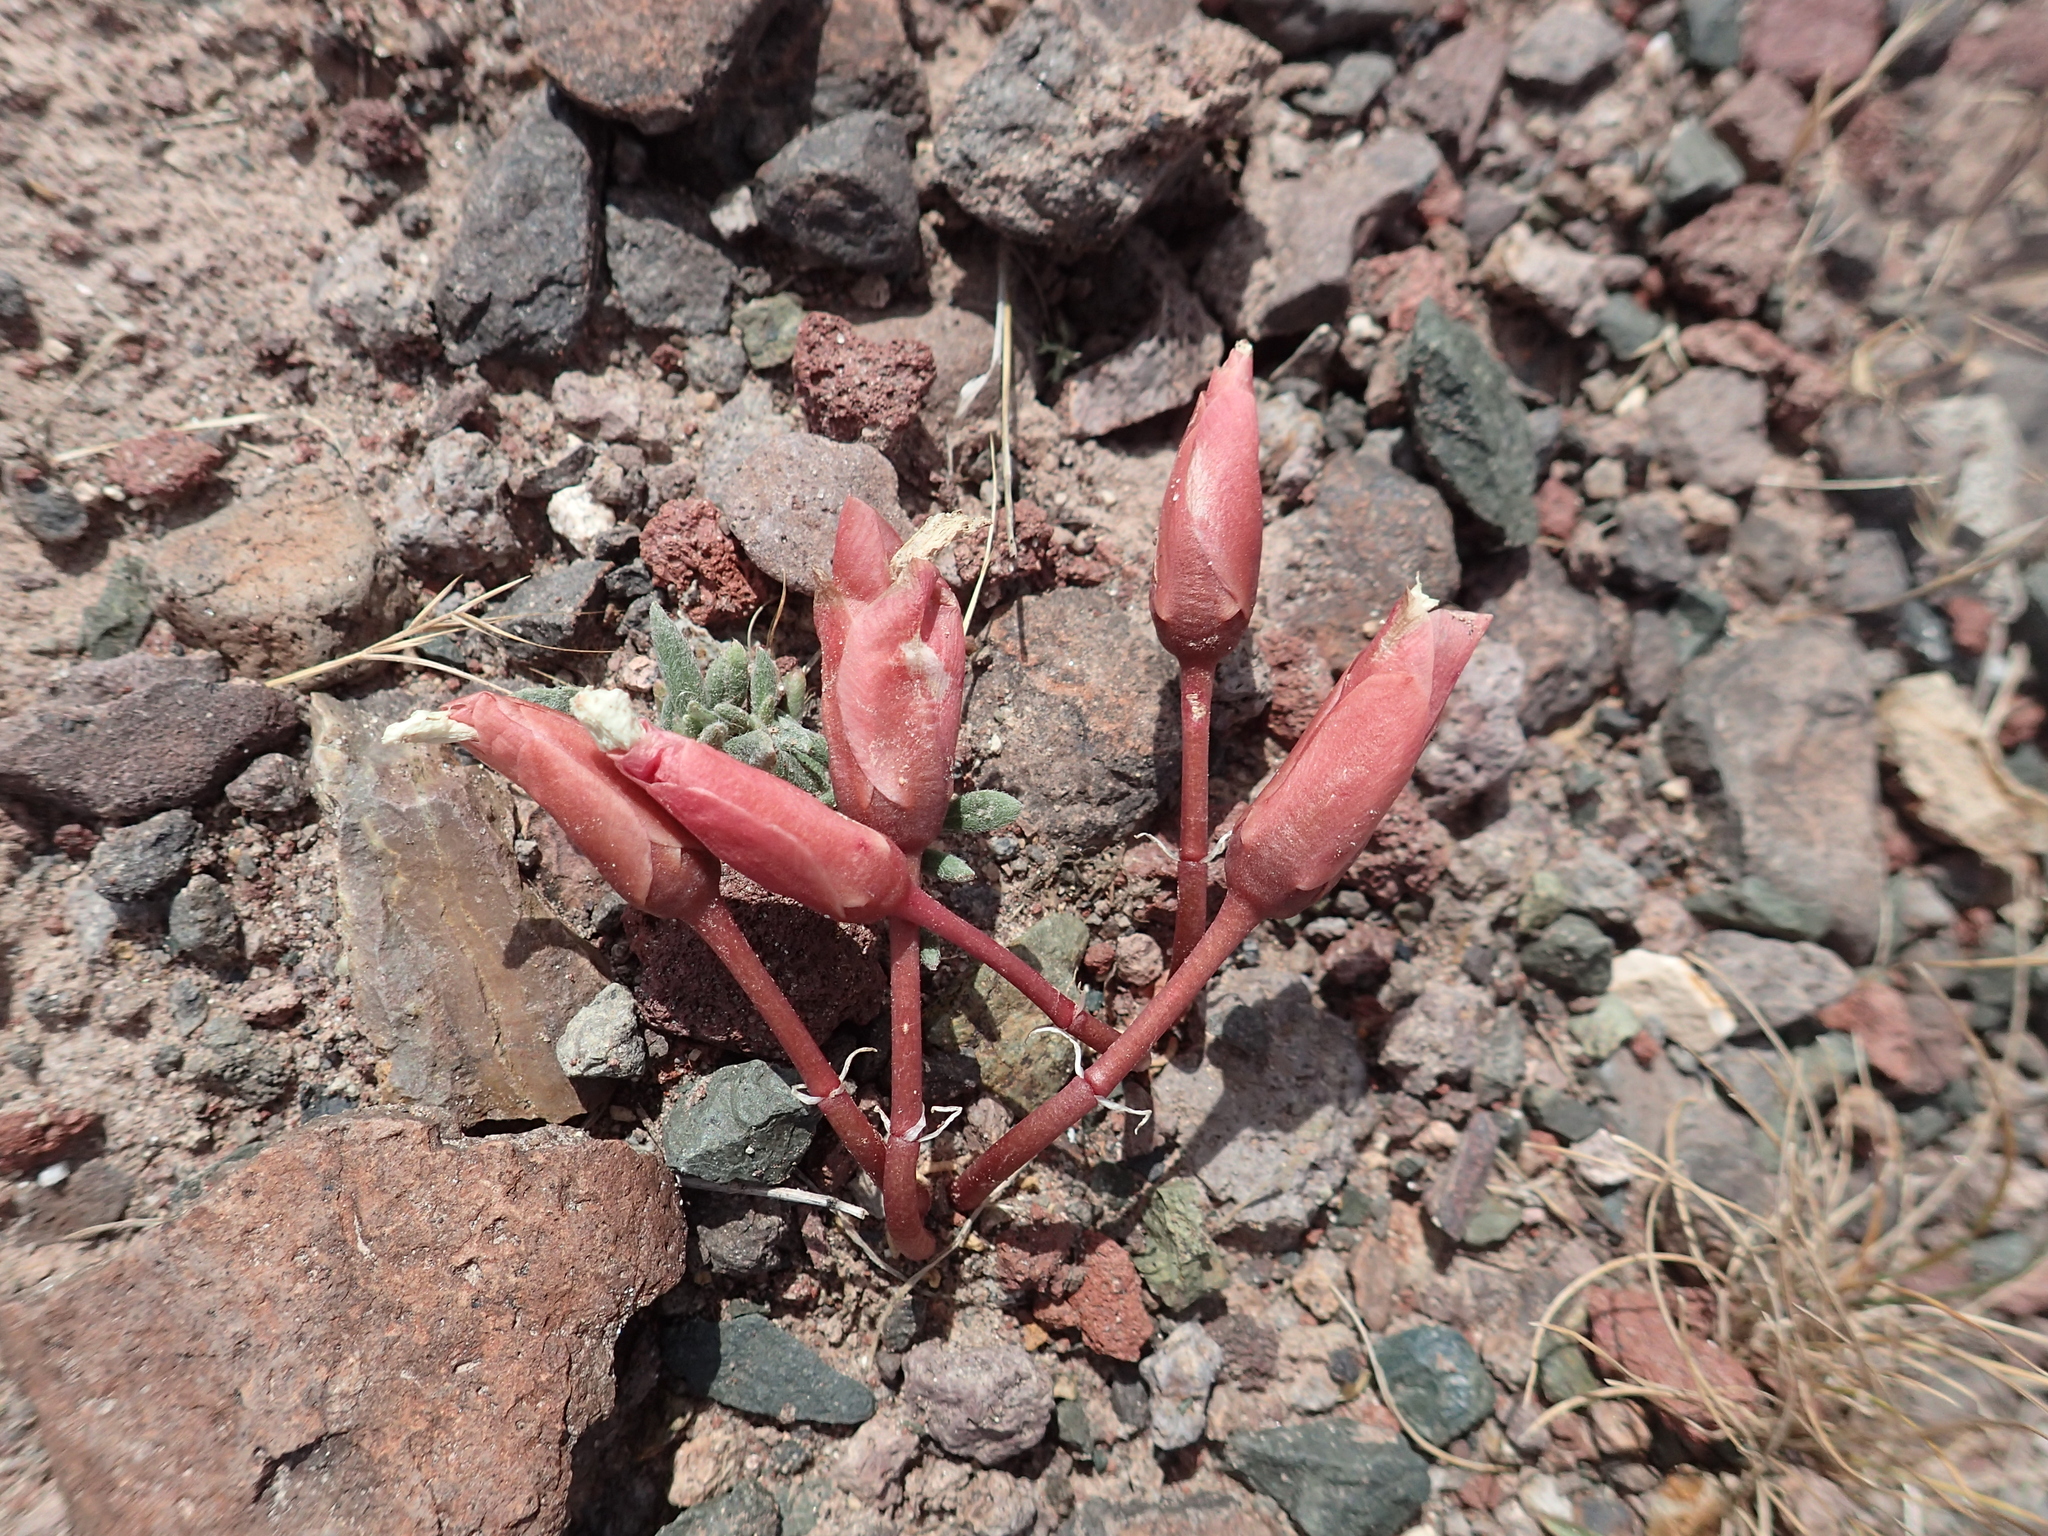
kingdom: Plantae
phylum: Tracheophyta
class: Magnoliopsida
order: Caryophyllales
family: Montiaceae
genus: Lewisia
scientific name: Lewisia rediviva
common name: Bitter-root
